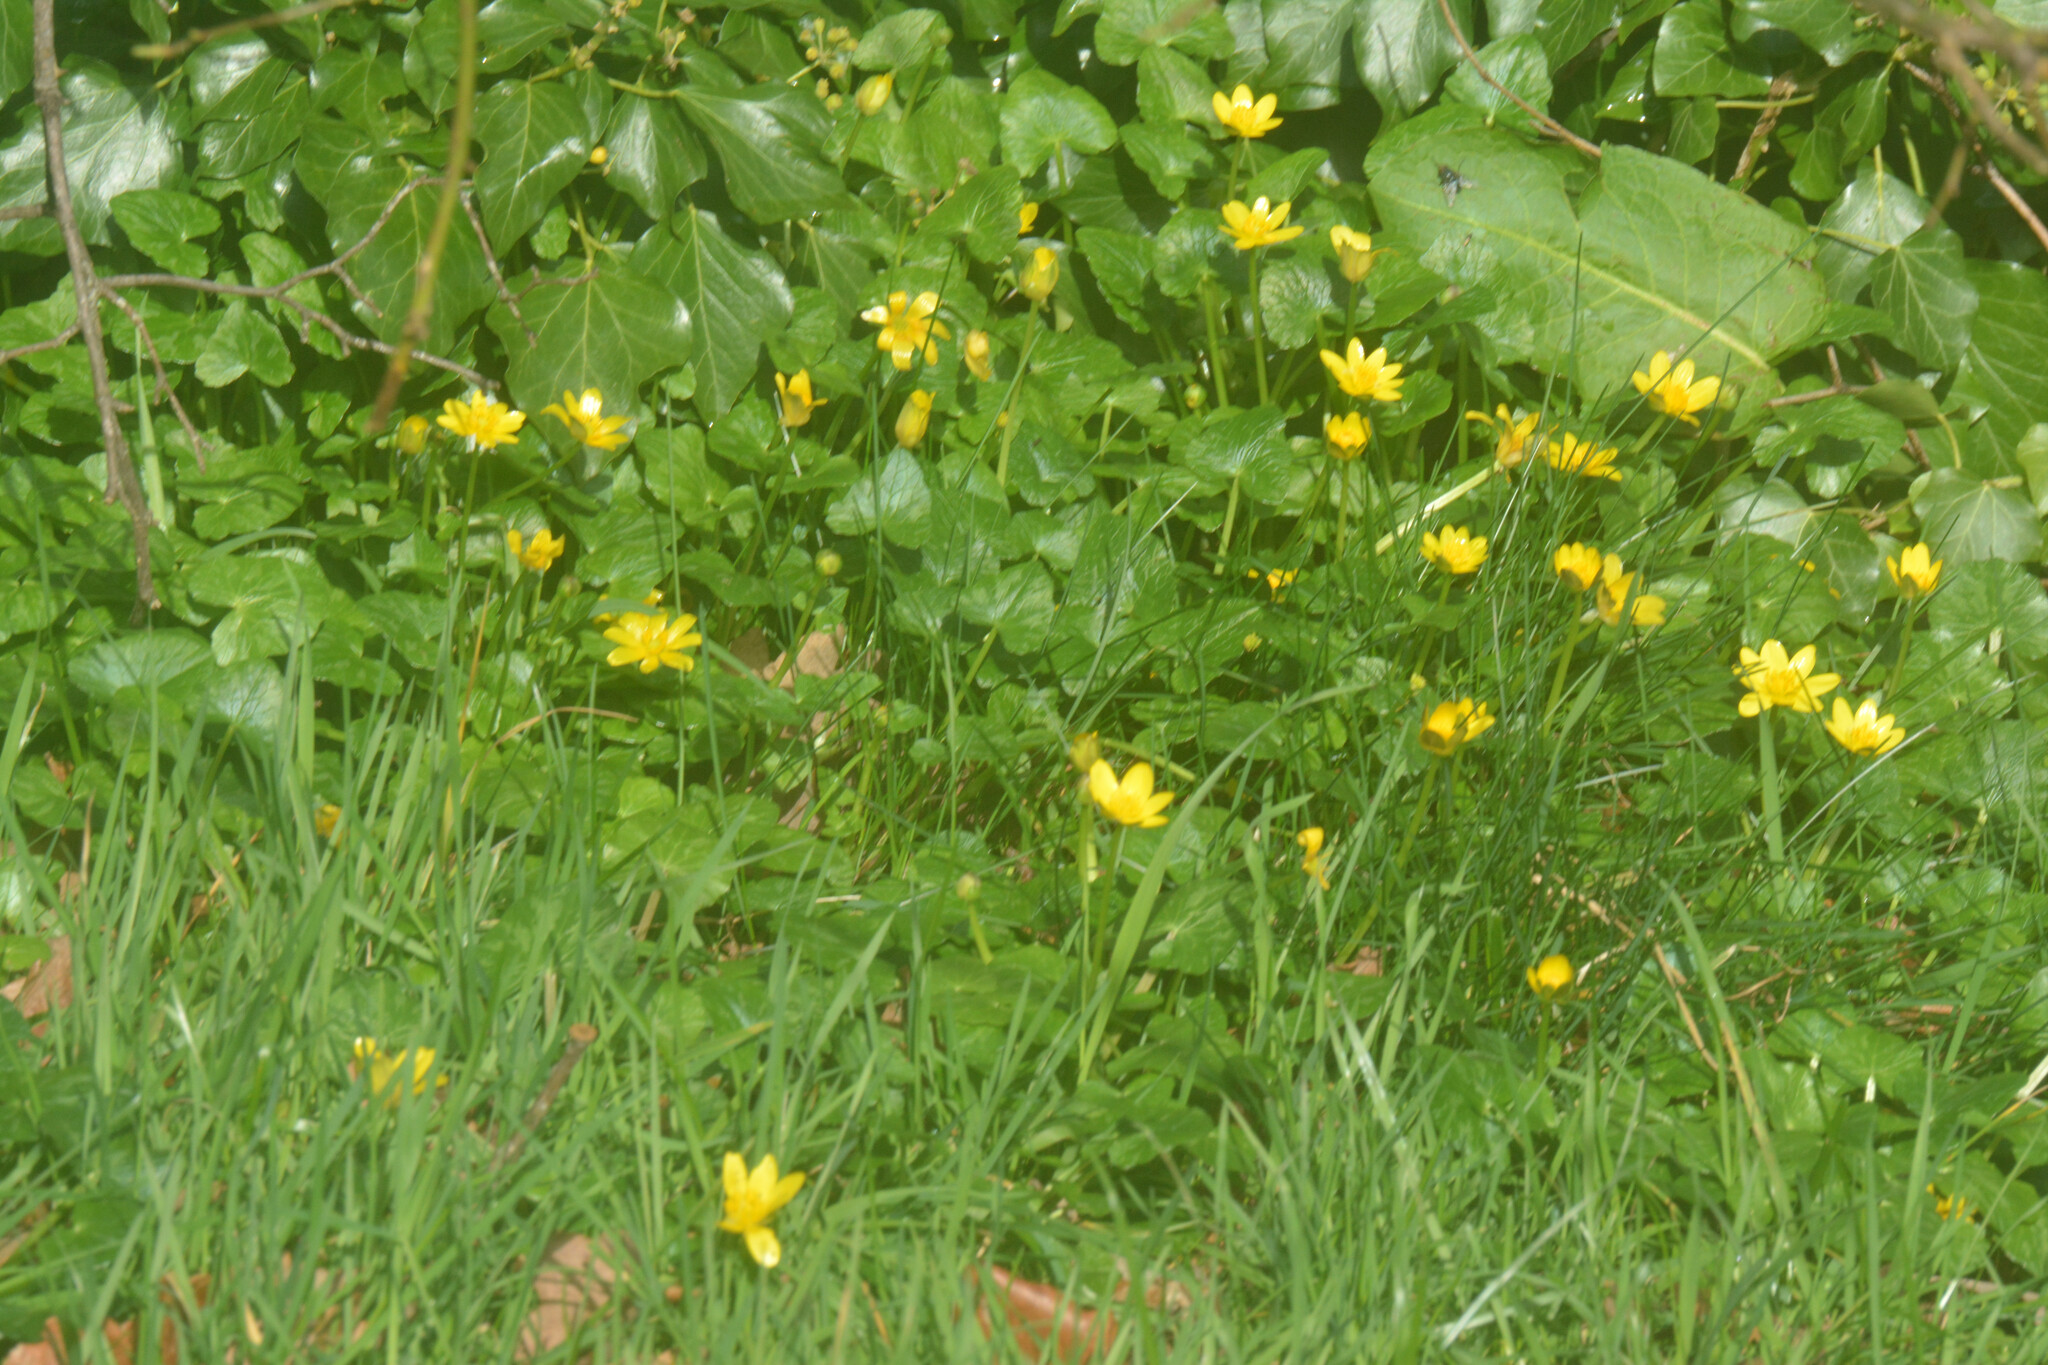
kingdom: Plantae
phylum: Tracheophyta
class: Magnoliopsida
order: Ranunculales
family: Ranunculaceae
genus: Ficaria
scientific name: Ficaria verna
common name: Lesser celandine
